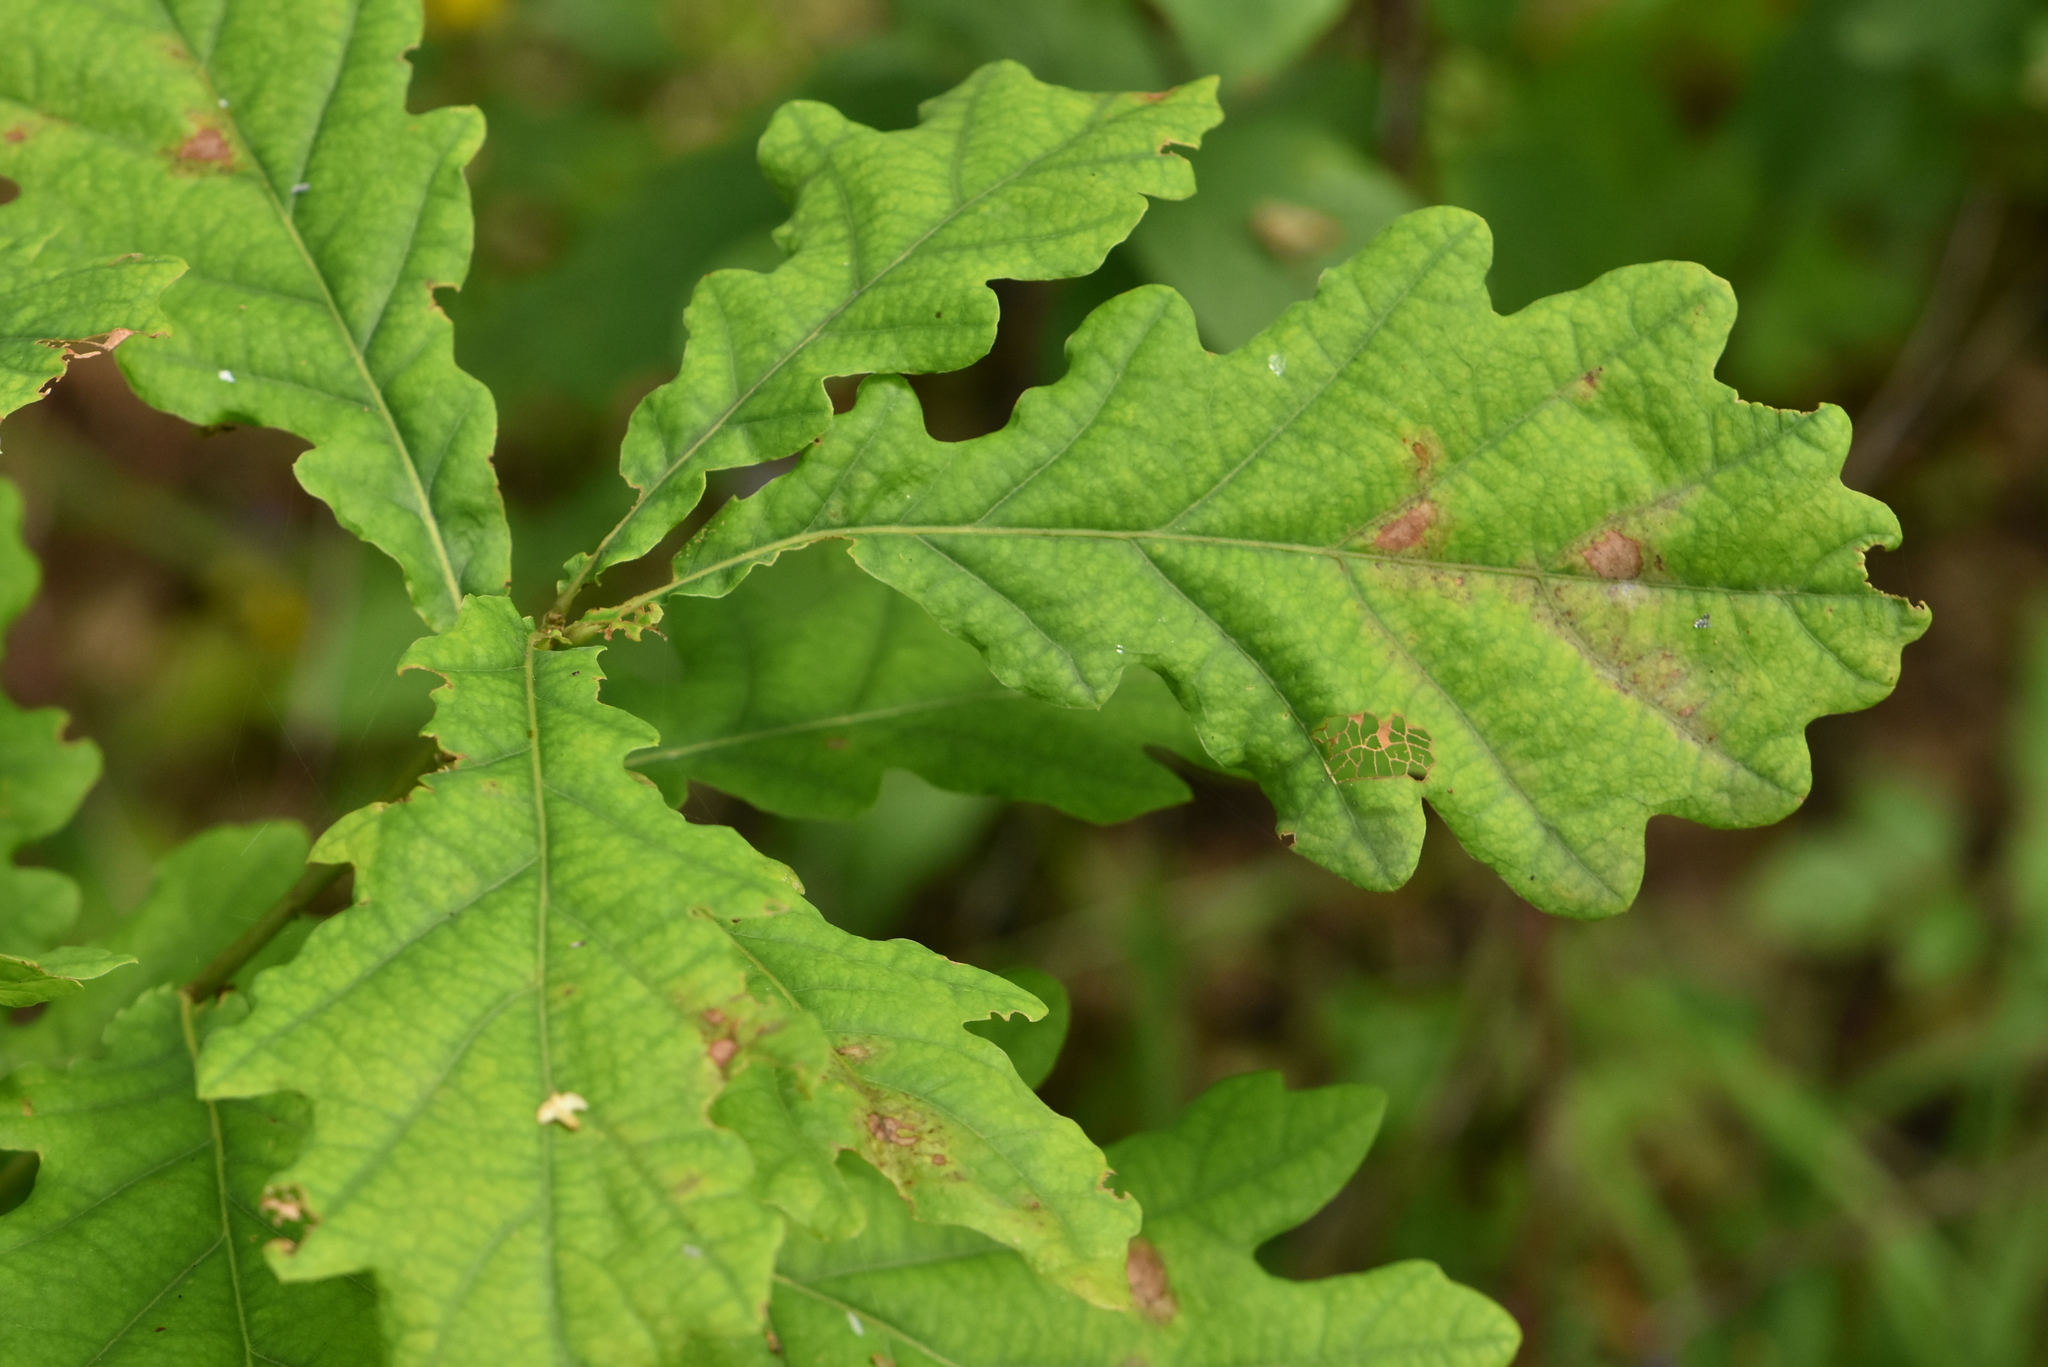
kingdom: Plantae
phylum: Tracheophyta
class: Magnoliopsida
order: Fagales
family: Fagaceae
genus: Quercus
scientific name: Quercus robur
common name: Pedunculate oak
